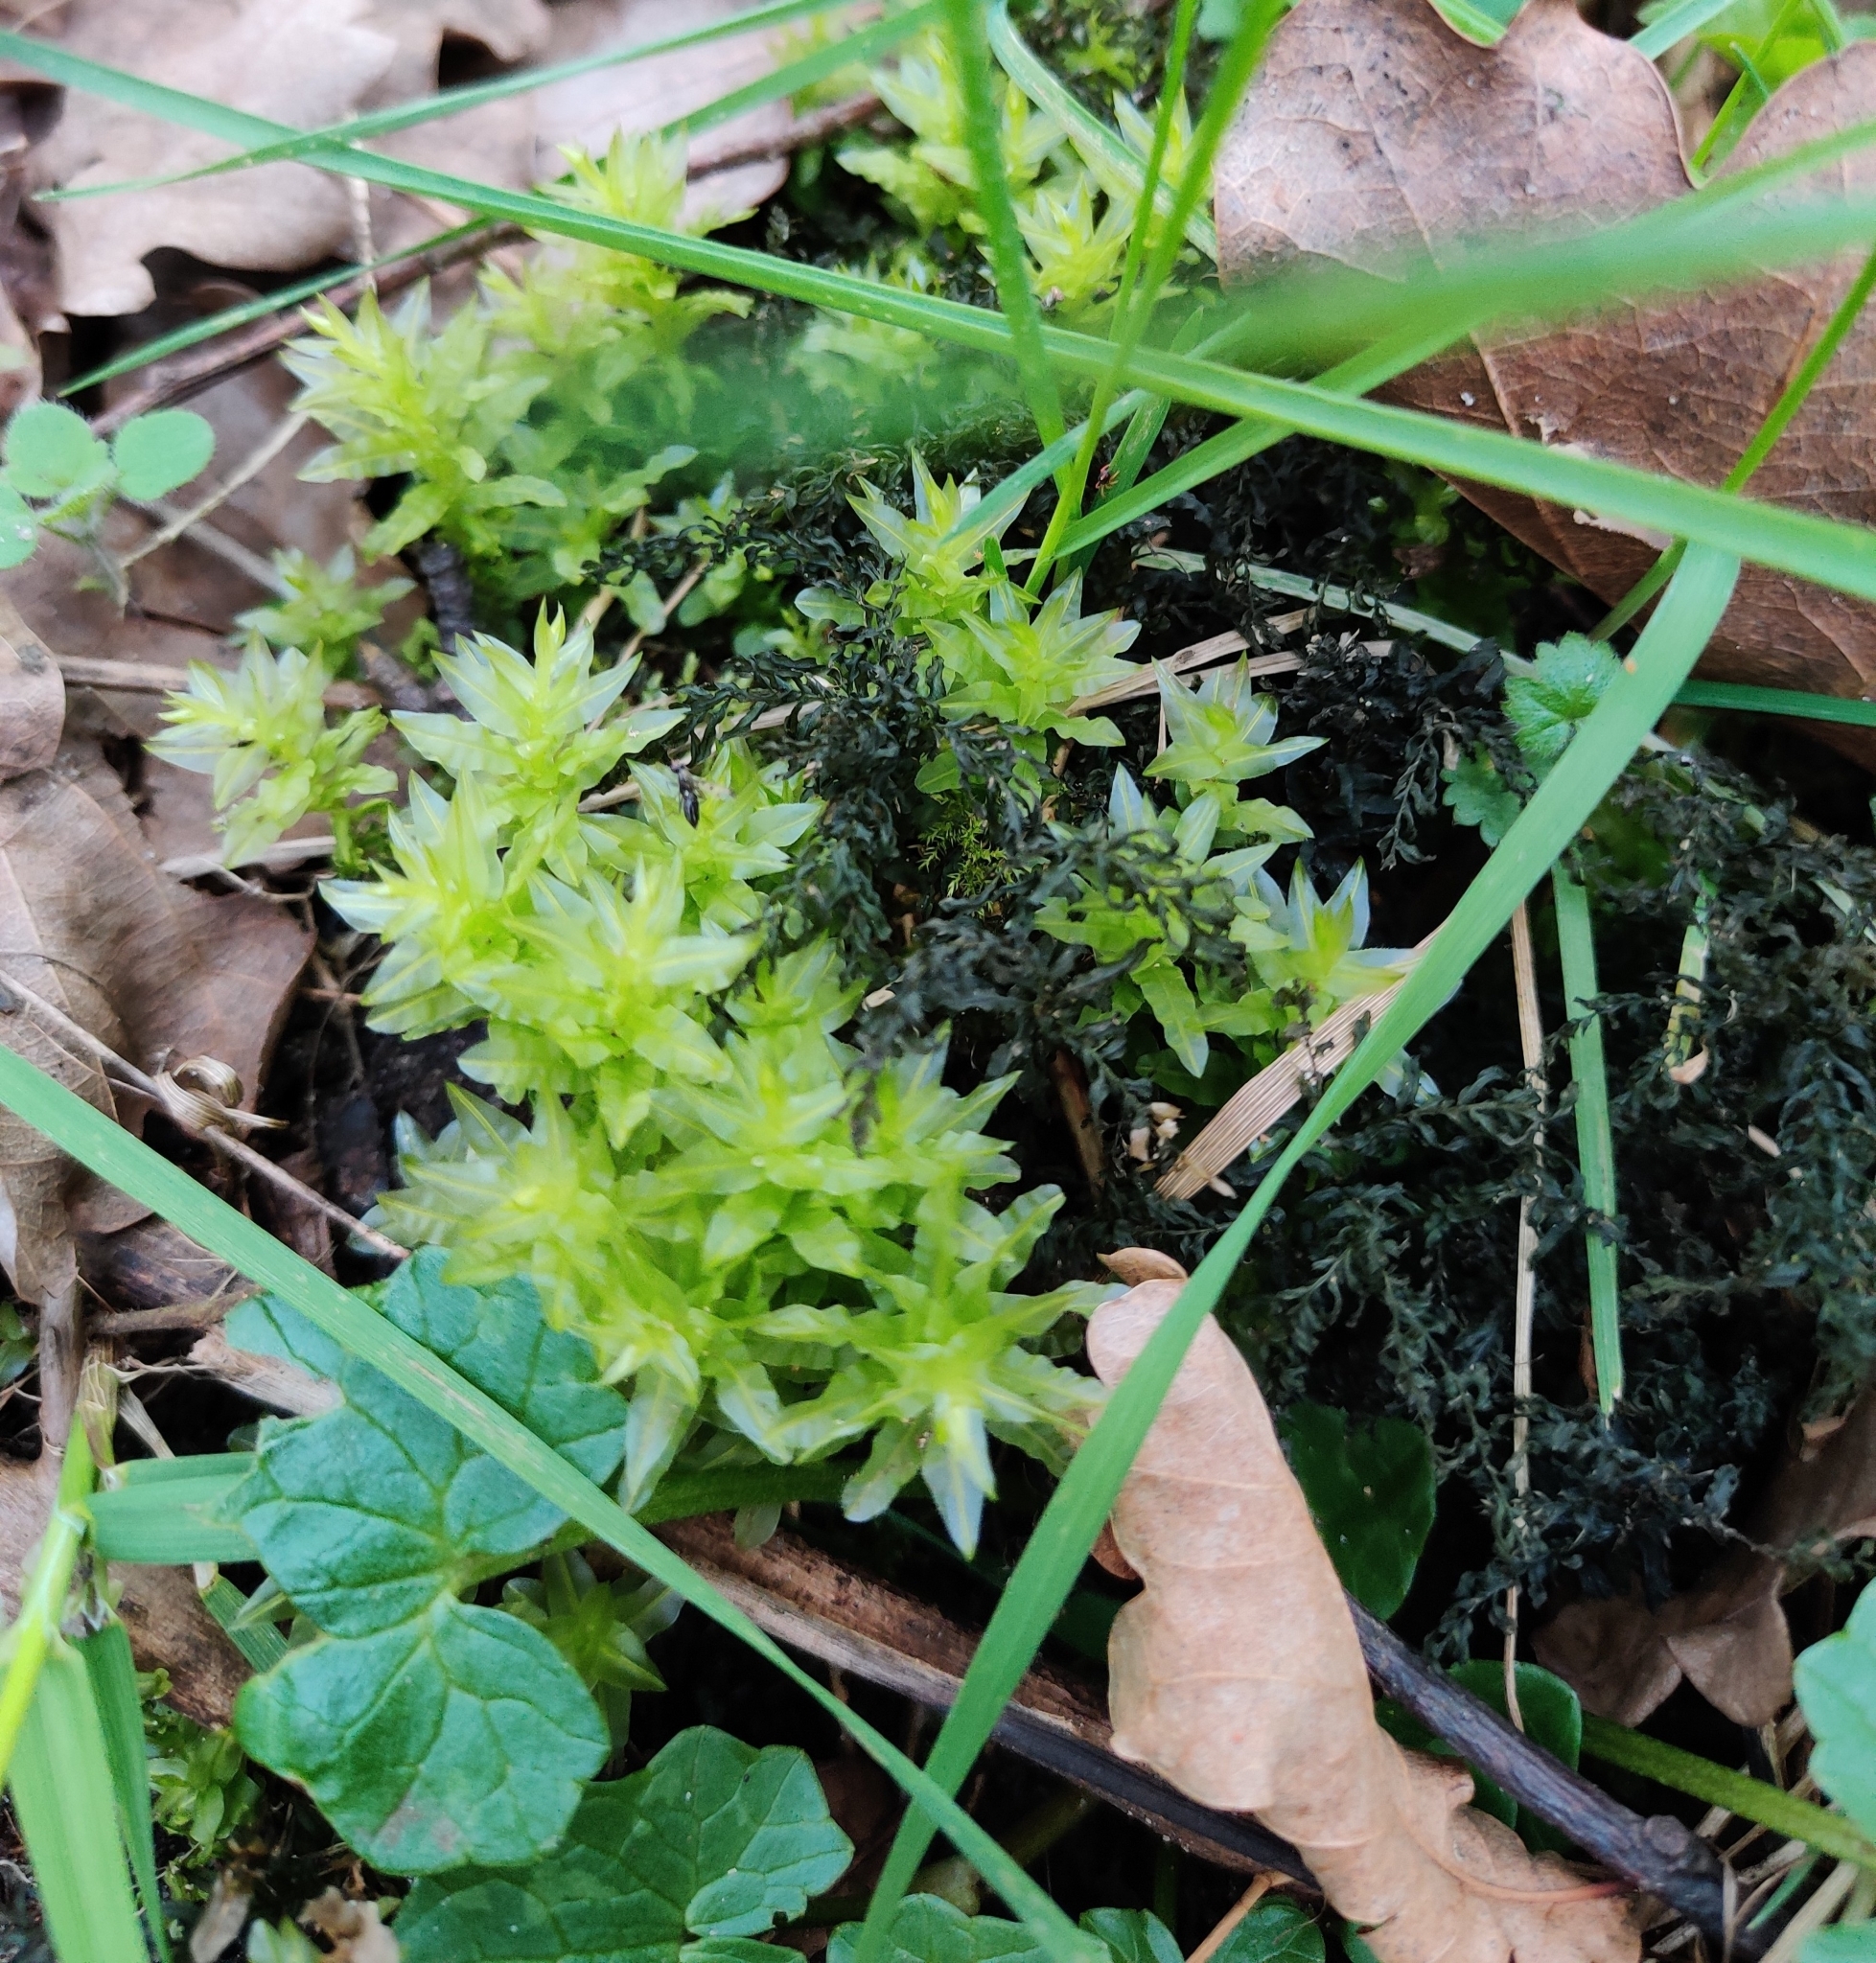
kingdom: Plantae
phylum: Bryophyta
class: Bryopsida
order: Bryales
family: Mniaceae
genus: Plagiomnium
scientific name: Plagiomnium undulatum
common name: Hart's-tongue thyme-moss
